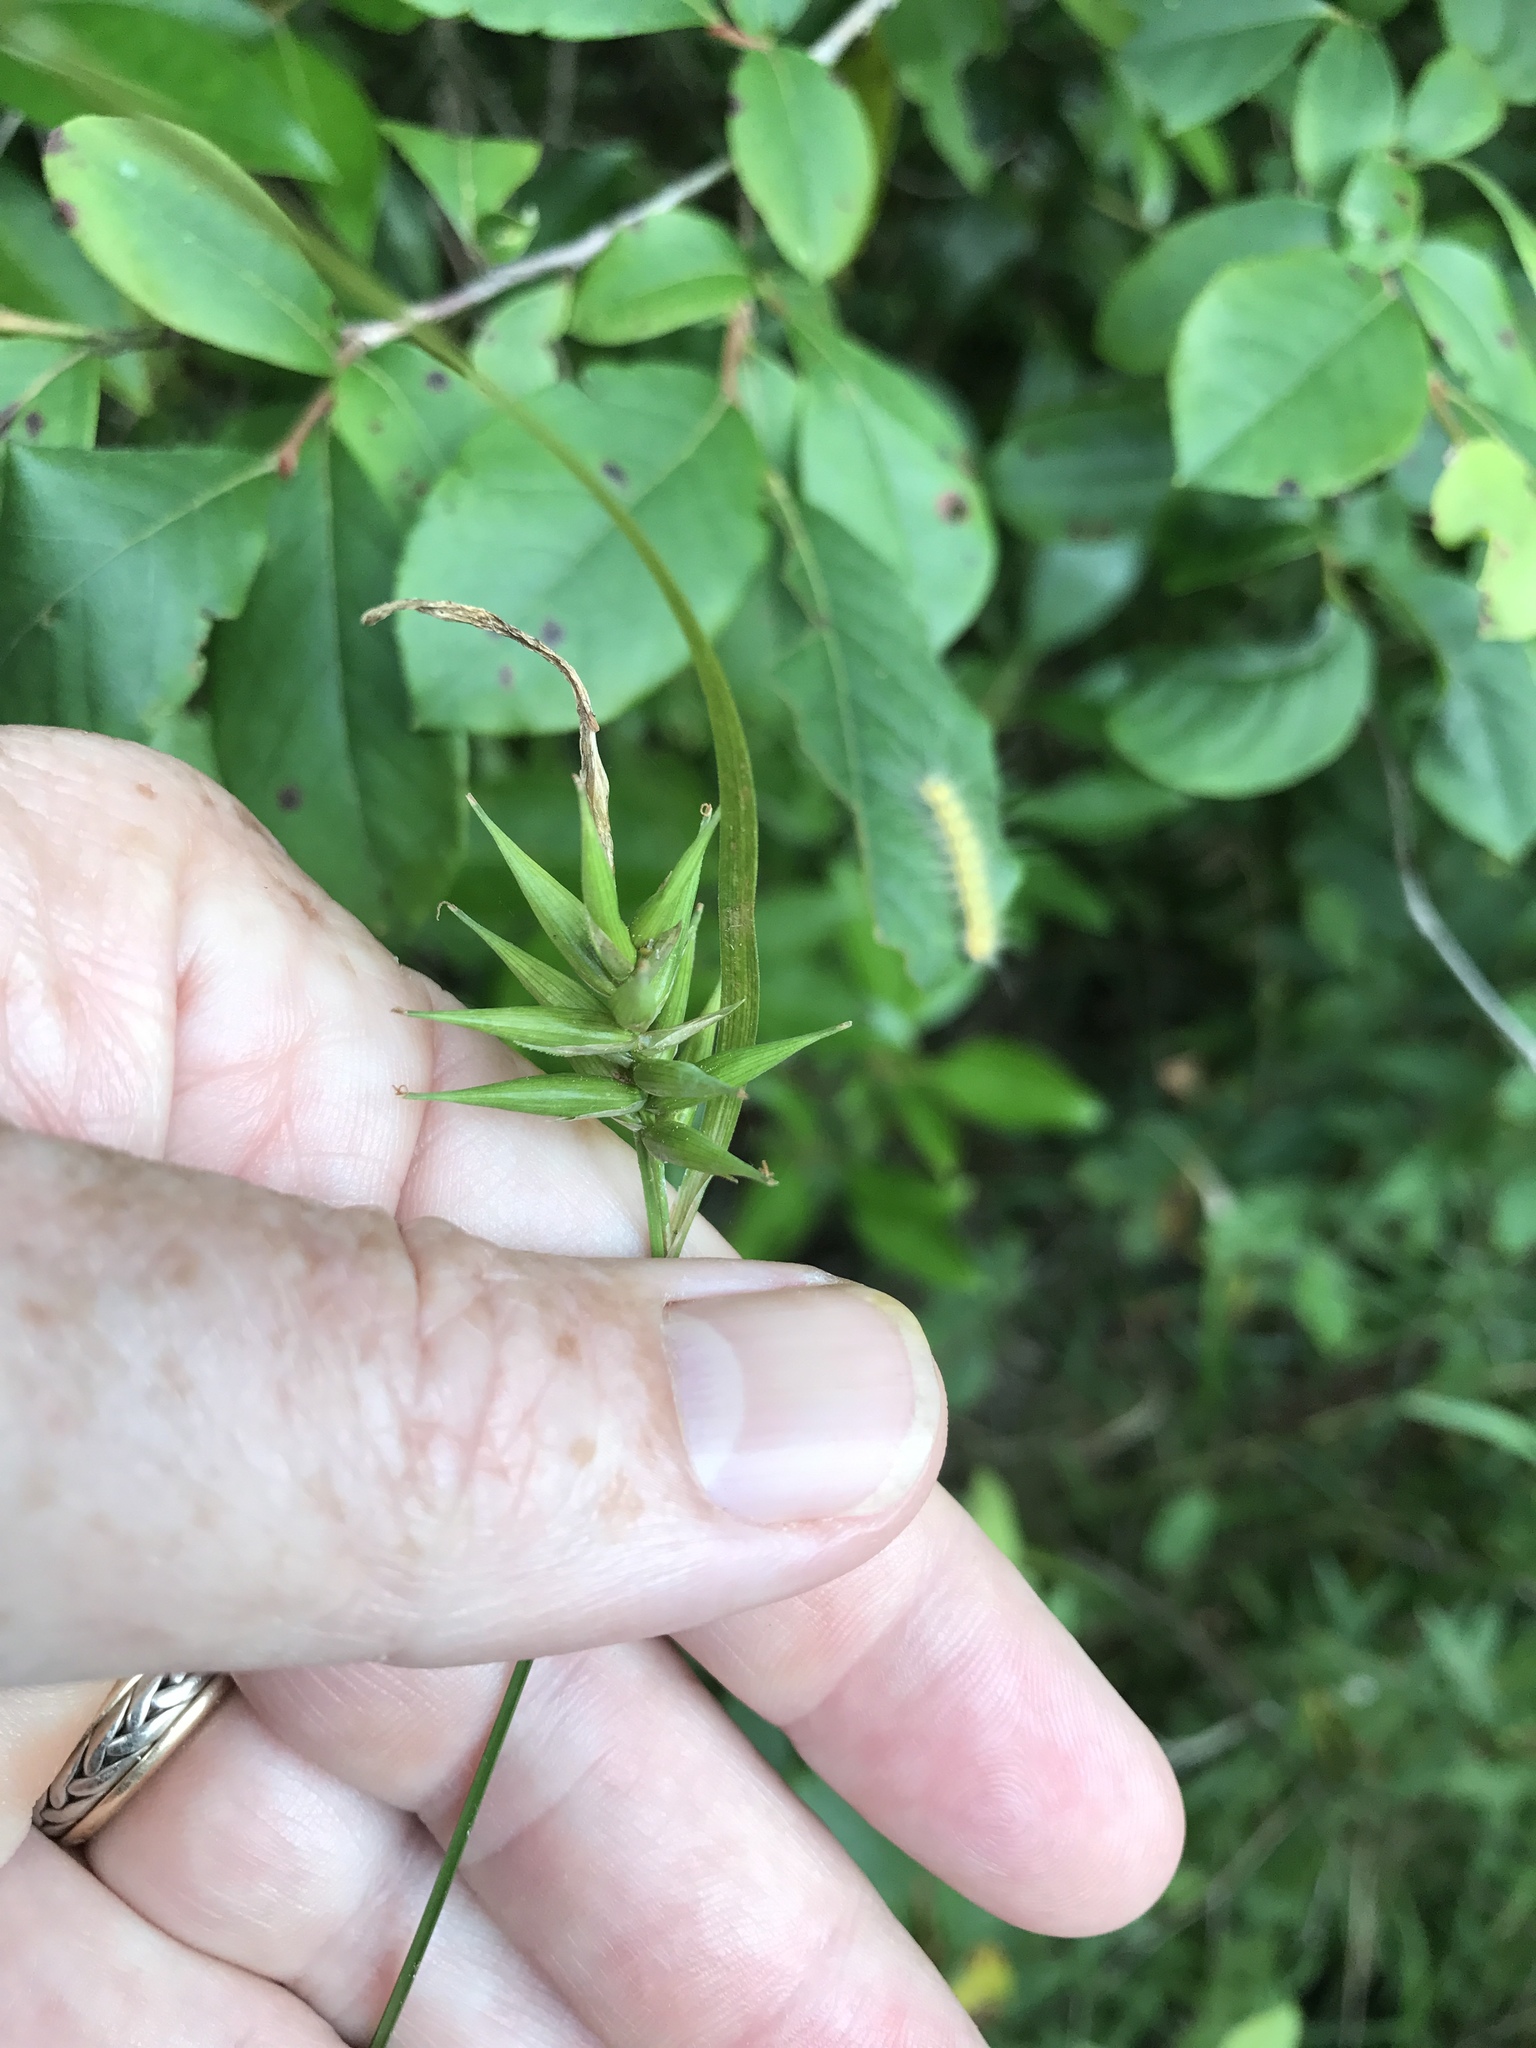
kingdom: Plantae
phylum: Tracheophyta
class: Liliopsida
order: Poales
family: Cyperaceae
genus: Carex
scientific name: Carex folliculata
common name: Northern long sedge
